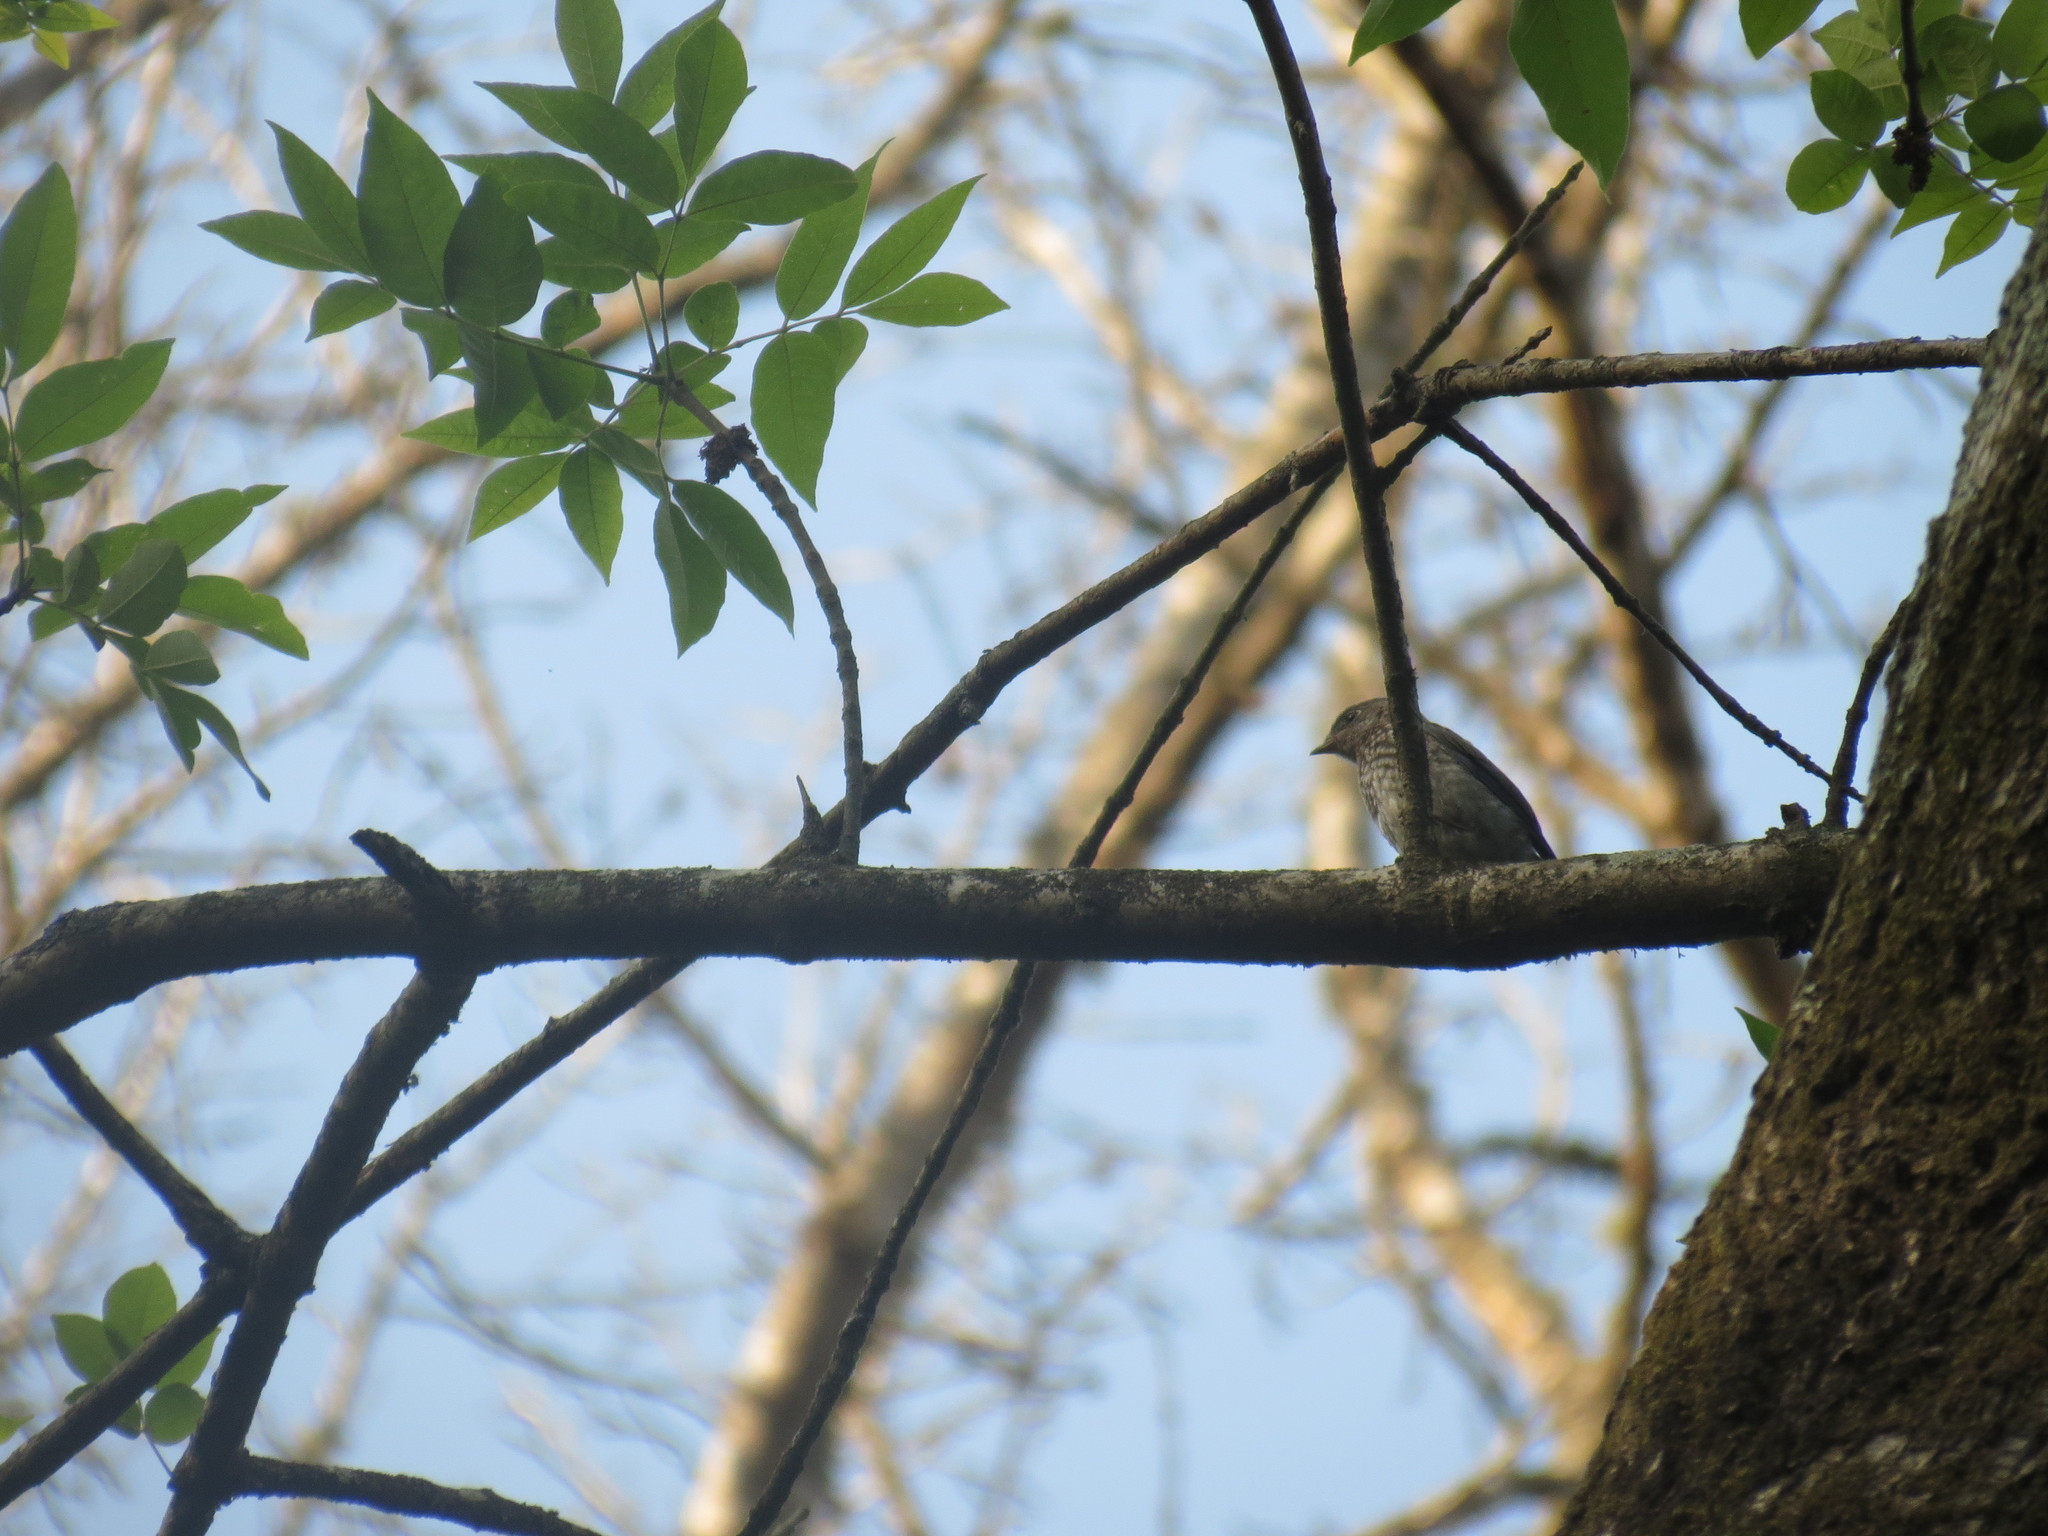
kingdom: Animalia
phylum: Chordata
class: Aves
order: Passeriformes
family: Turdidae
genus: Sialia
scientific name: Sialia sialis
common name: Eastern bluebird
